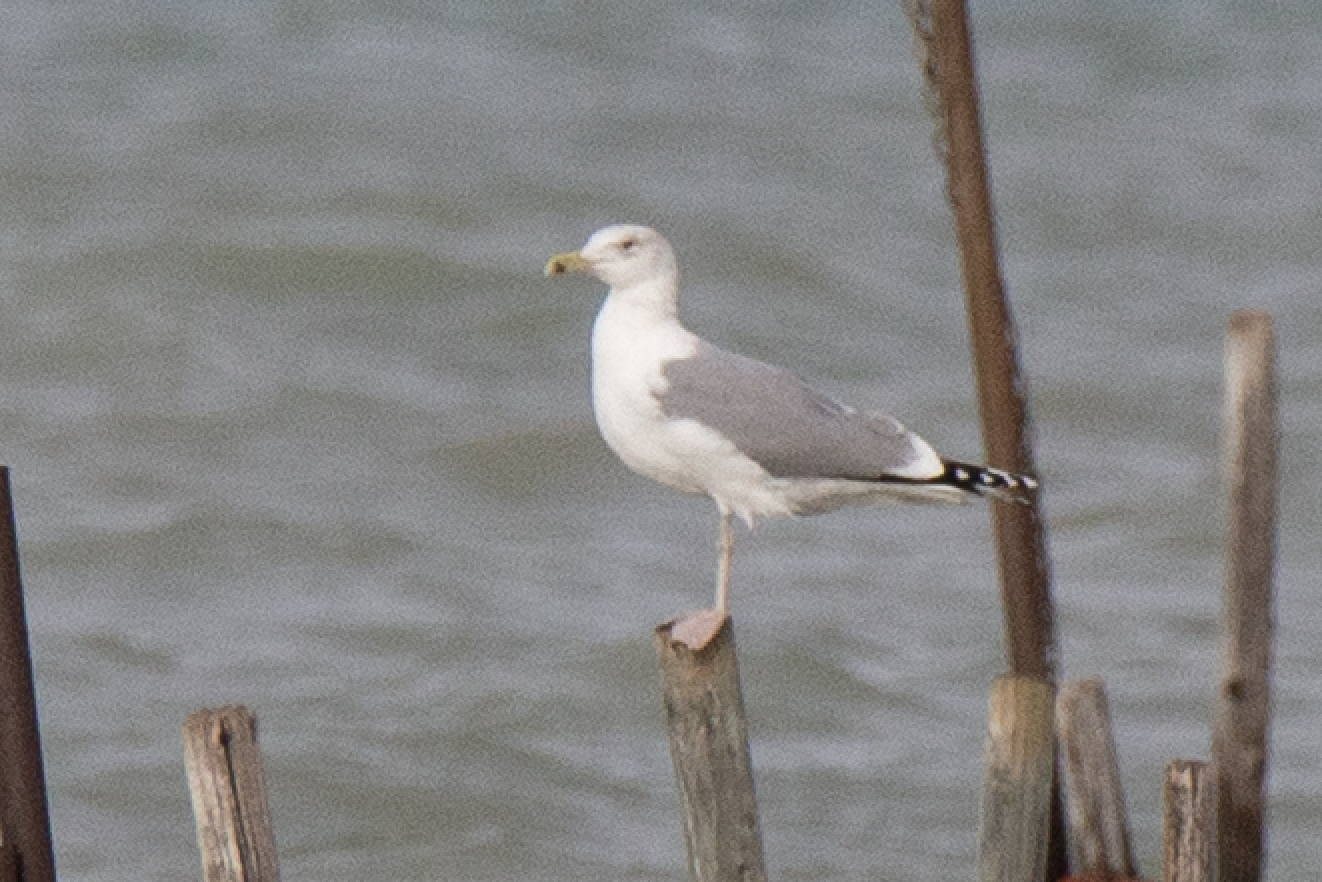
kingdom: Animalia
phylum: Chordata
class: Aves
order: Charadriiformes
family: Laridae
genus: Larus
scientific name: Larus cachinnans
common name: Caspian gull
